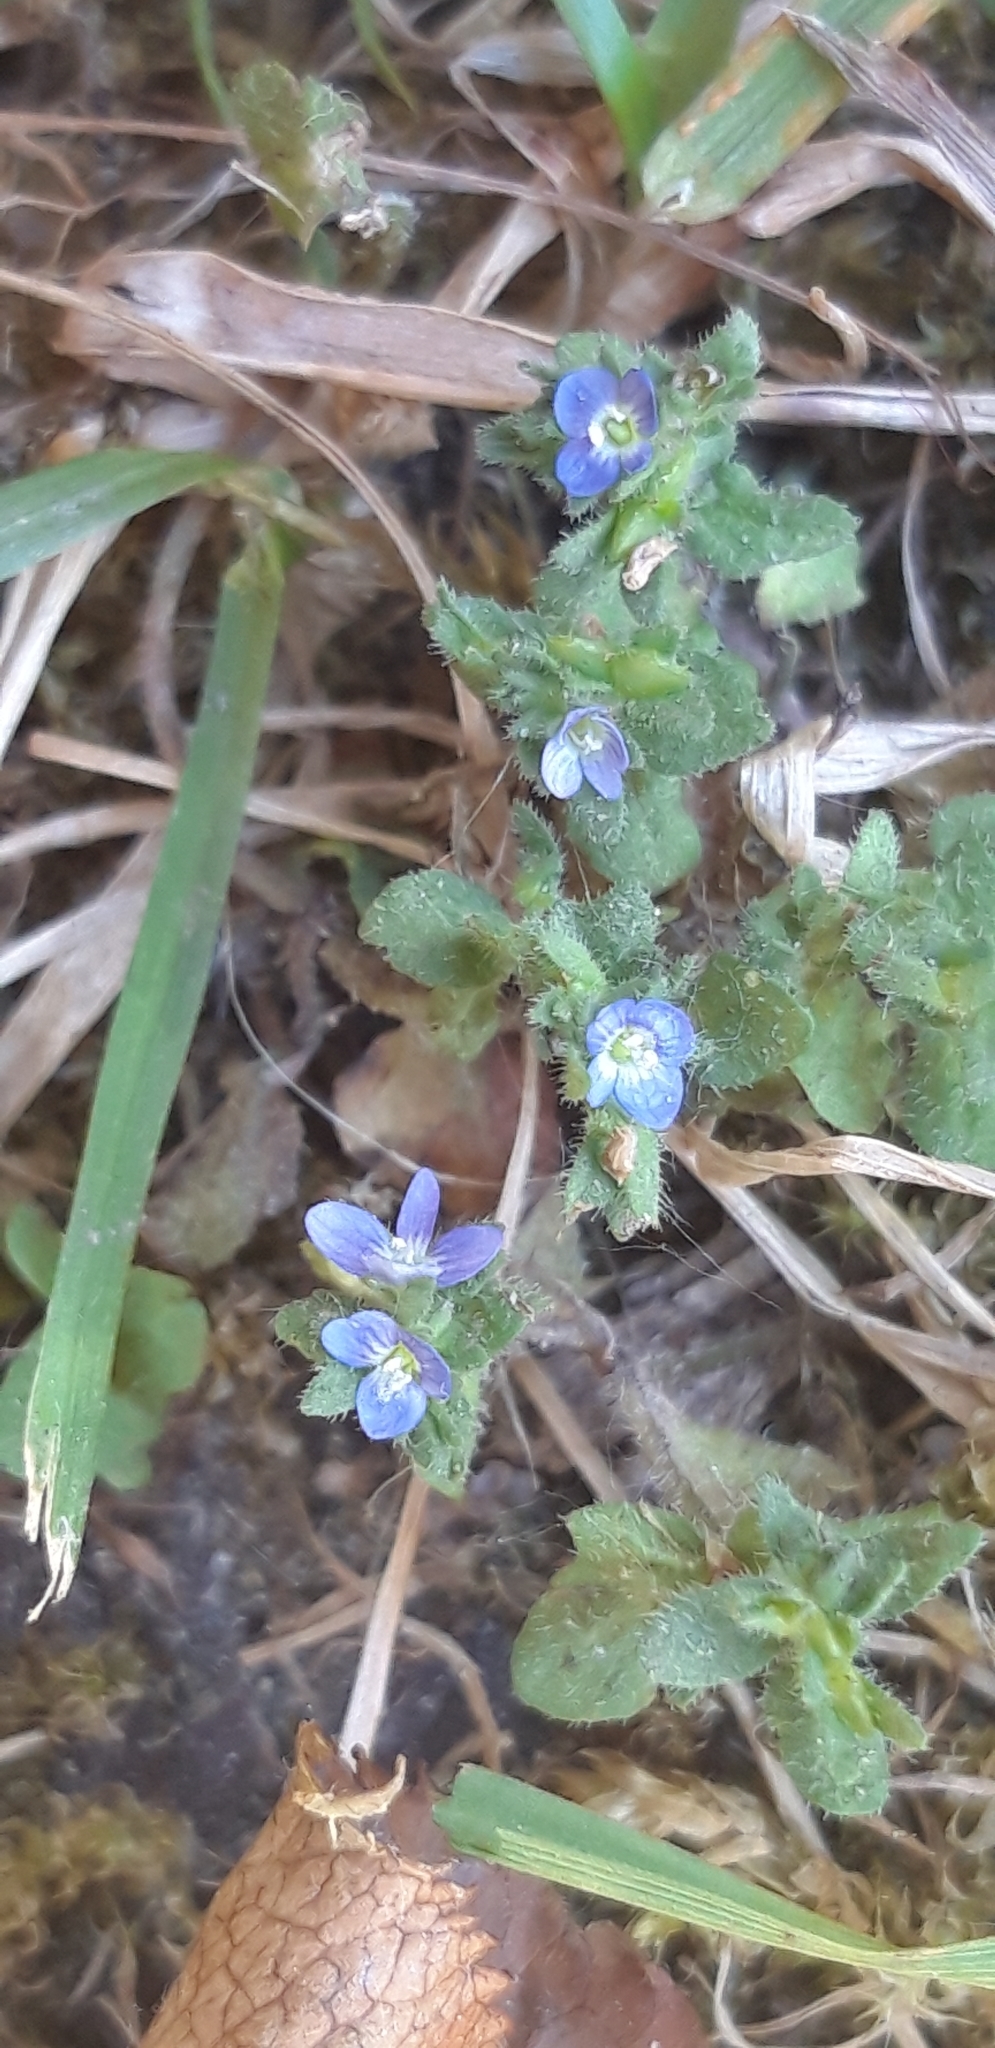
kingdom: Plantae
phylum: Tracheophyta
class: Magnoliopsida
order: Lamiales
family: Plantaginaceae
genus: Veronica
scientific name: Veronica arvensis
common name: Corn speedwell
